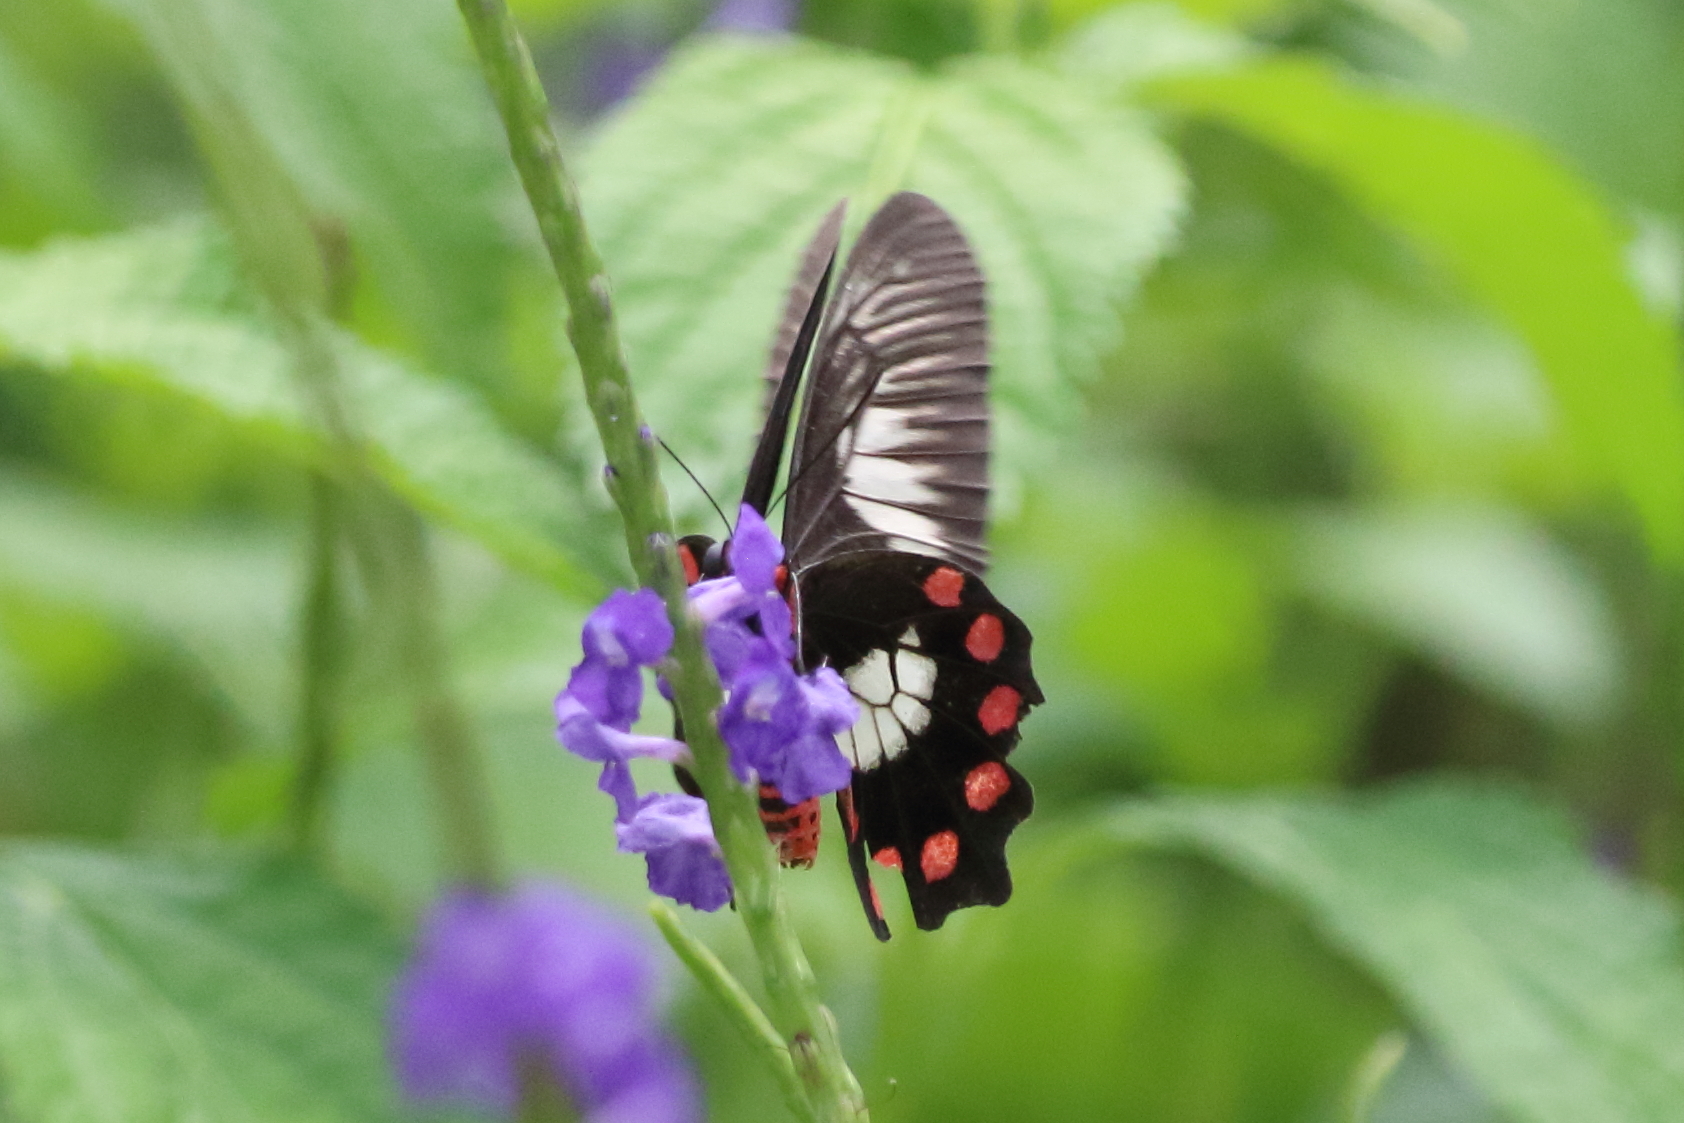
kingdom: Animalia
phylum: Arthropoda
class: Insecta
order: Lepidoptera
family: Papilionidae
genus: Pachliopta
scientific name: Pachliopta polydorus
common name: Red-bodied swallowtail
